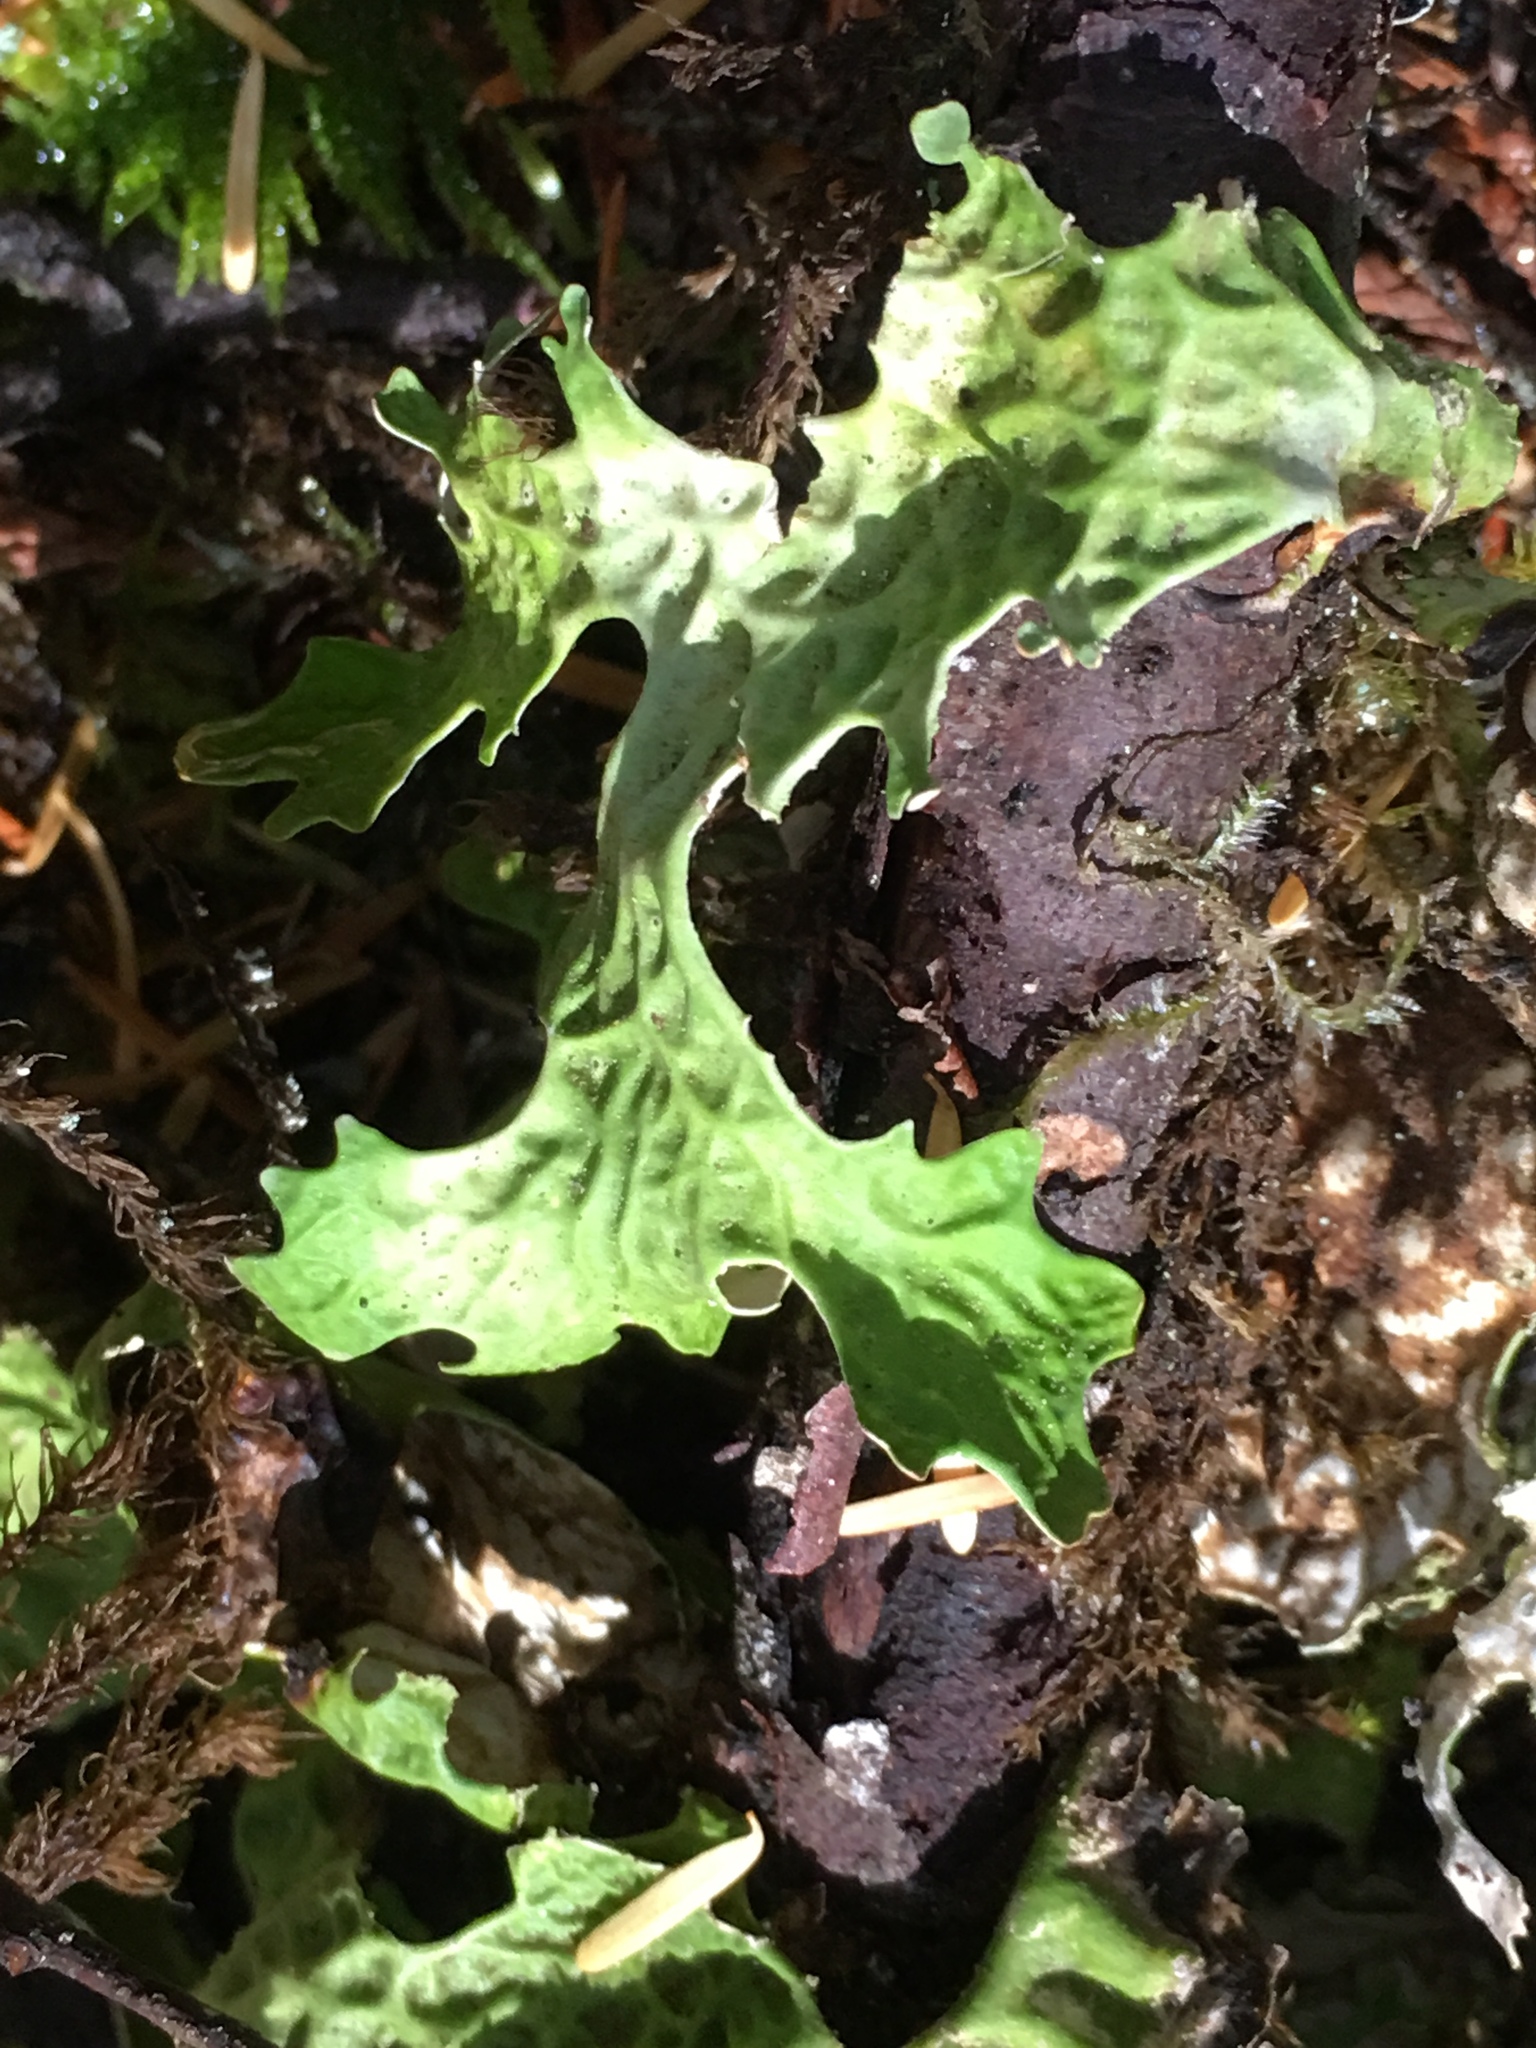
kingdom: Fungi
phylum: Ascomycota
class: Lecanoromycetes
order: Peltigerales
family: Lobariaceae
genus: Lobaria
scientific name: Lobaria oregana
